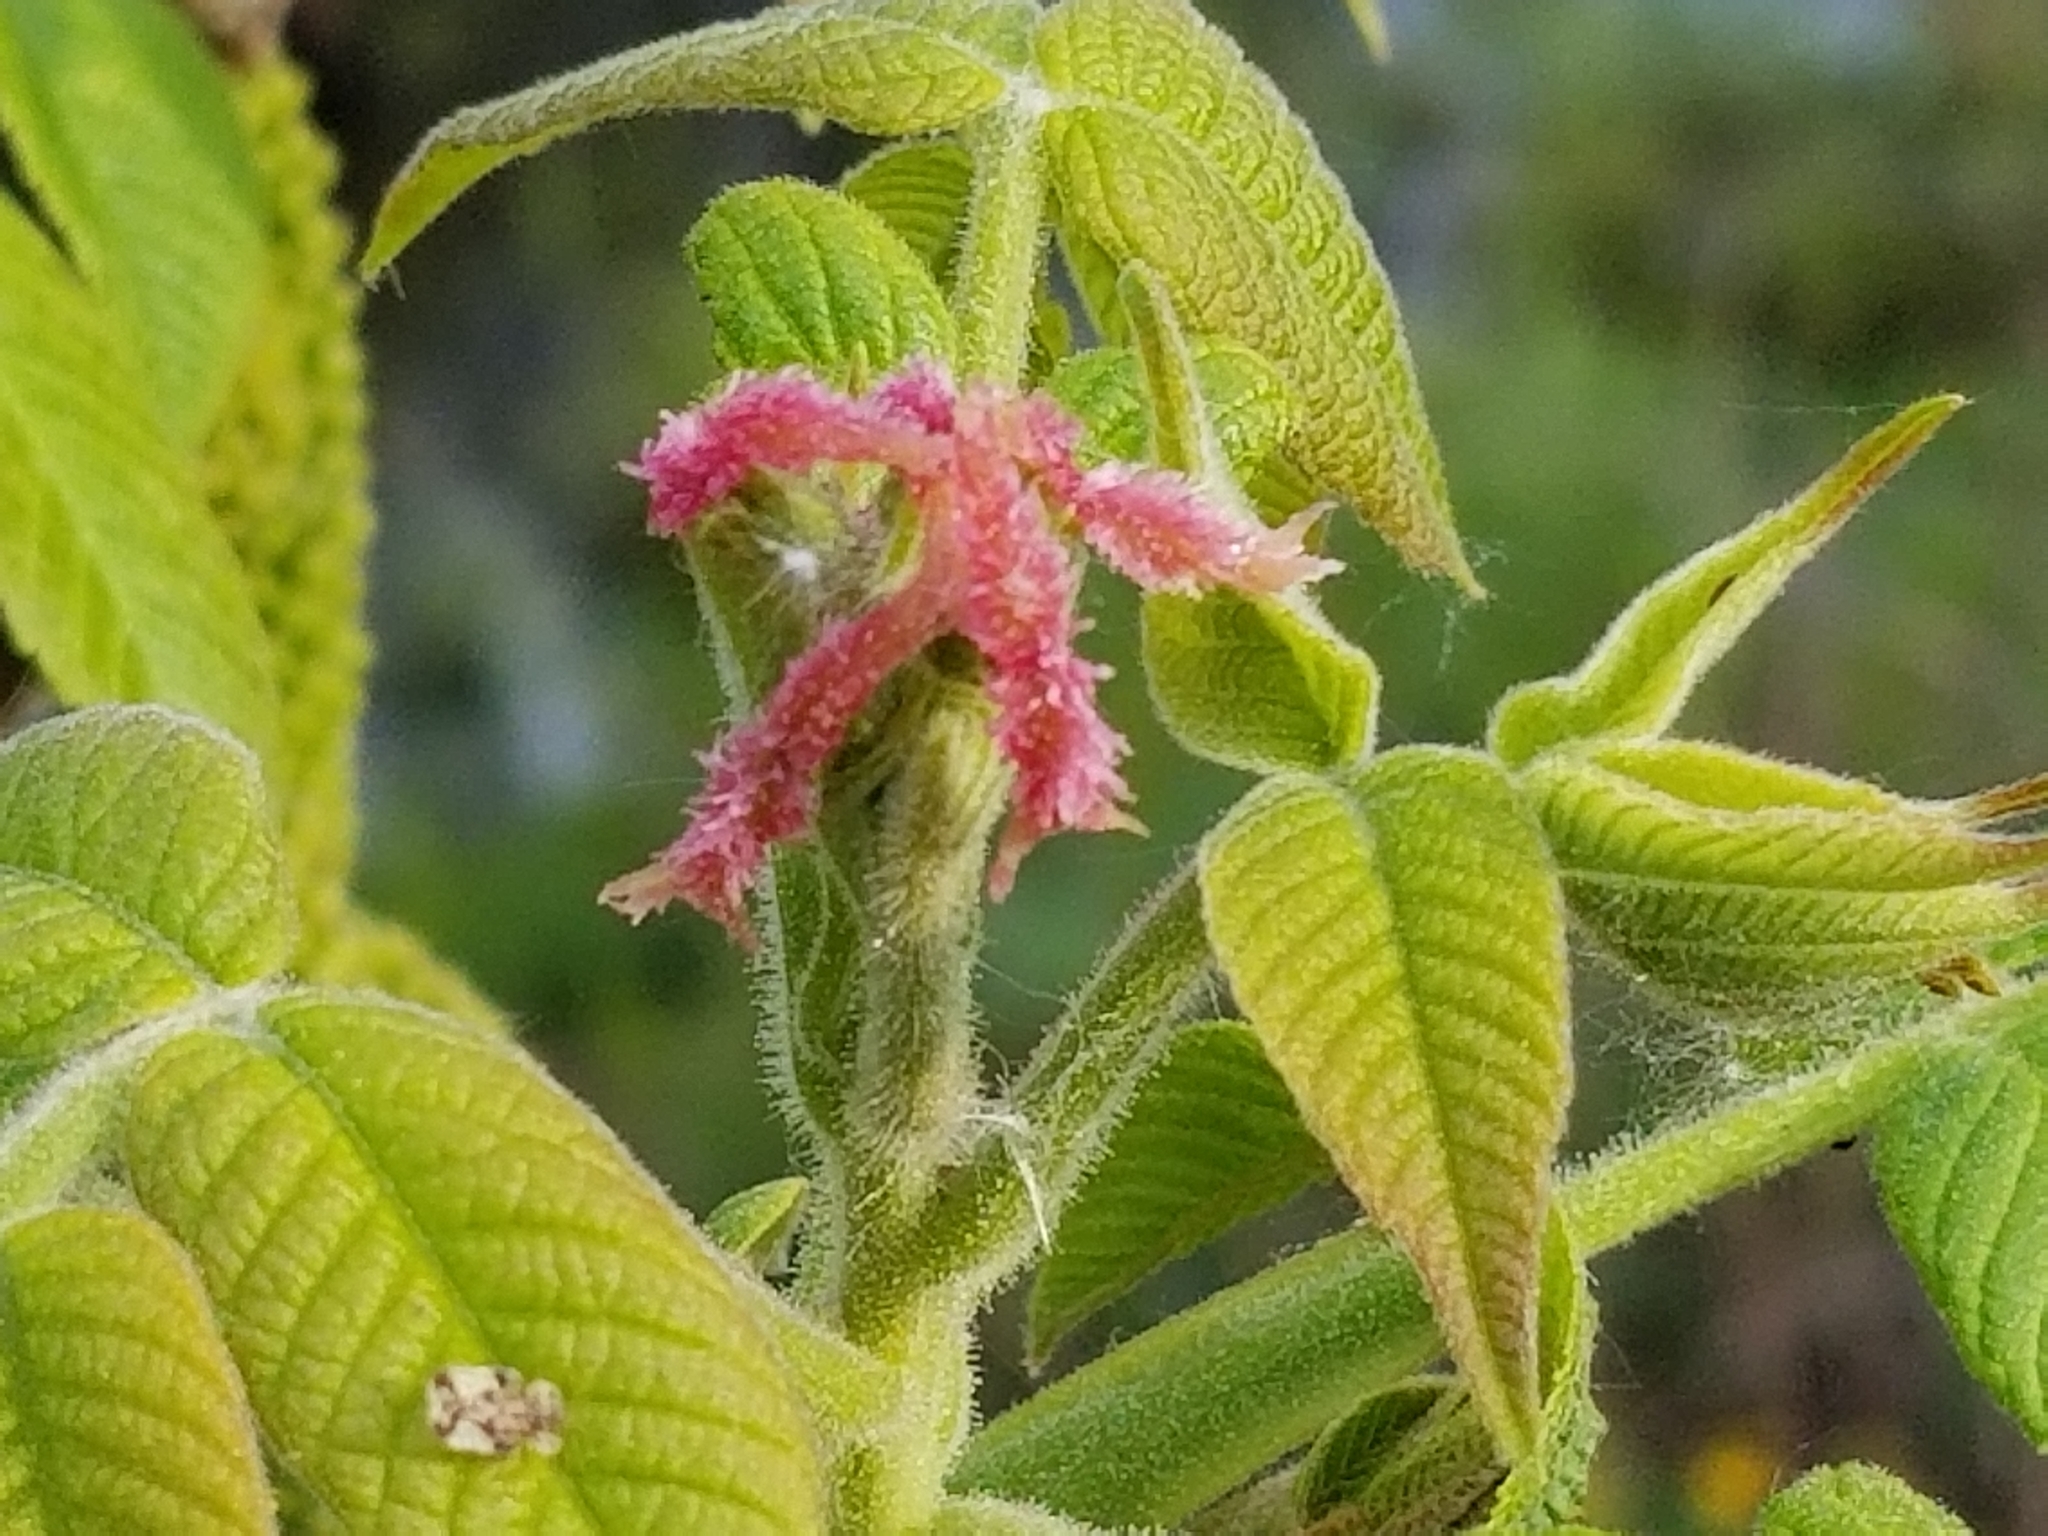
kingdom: Plantae
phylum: Tracheophyta
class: Magnoliopsida
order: Fagales
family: Juglandaceae
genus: Juglans
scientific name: Juglans cinerea
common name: Butternut
